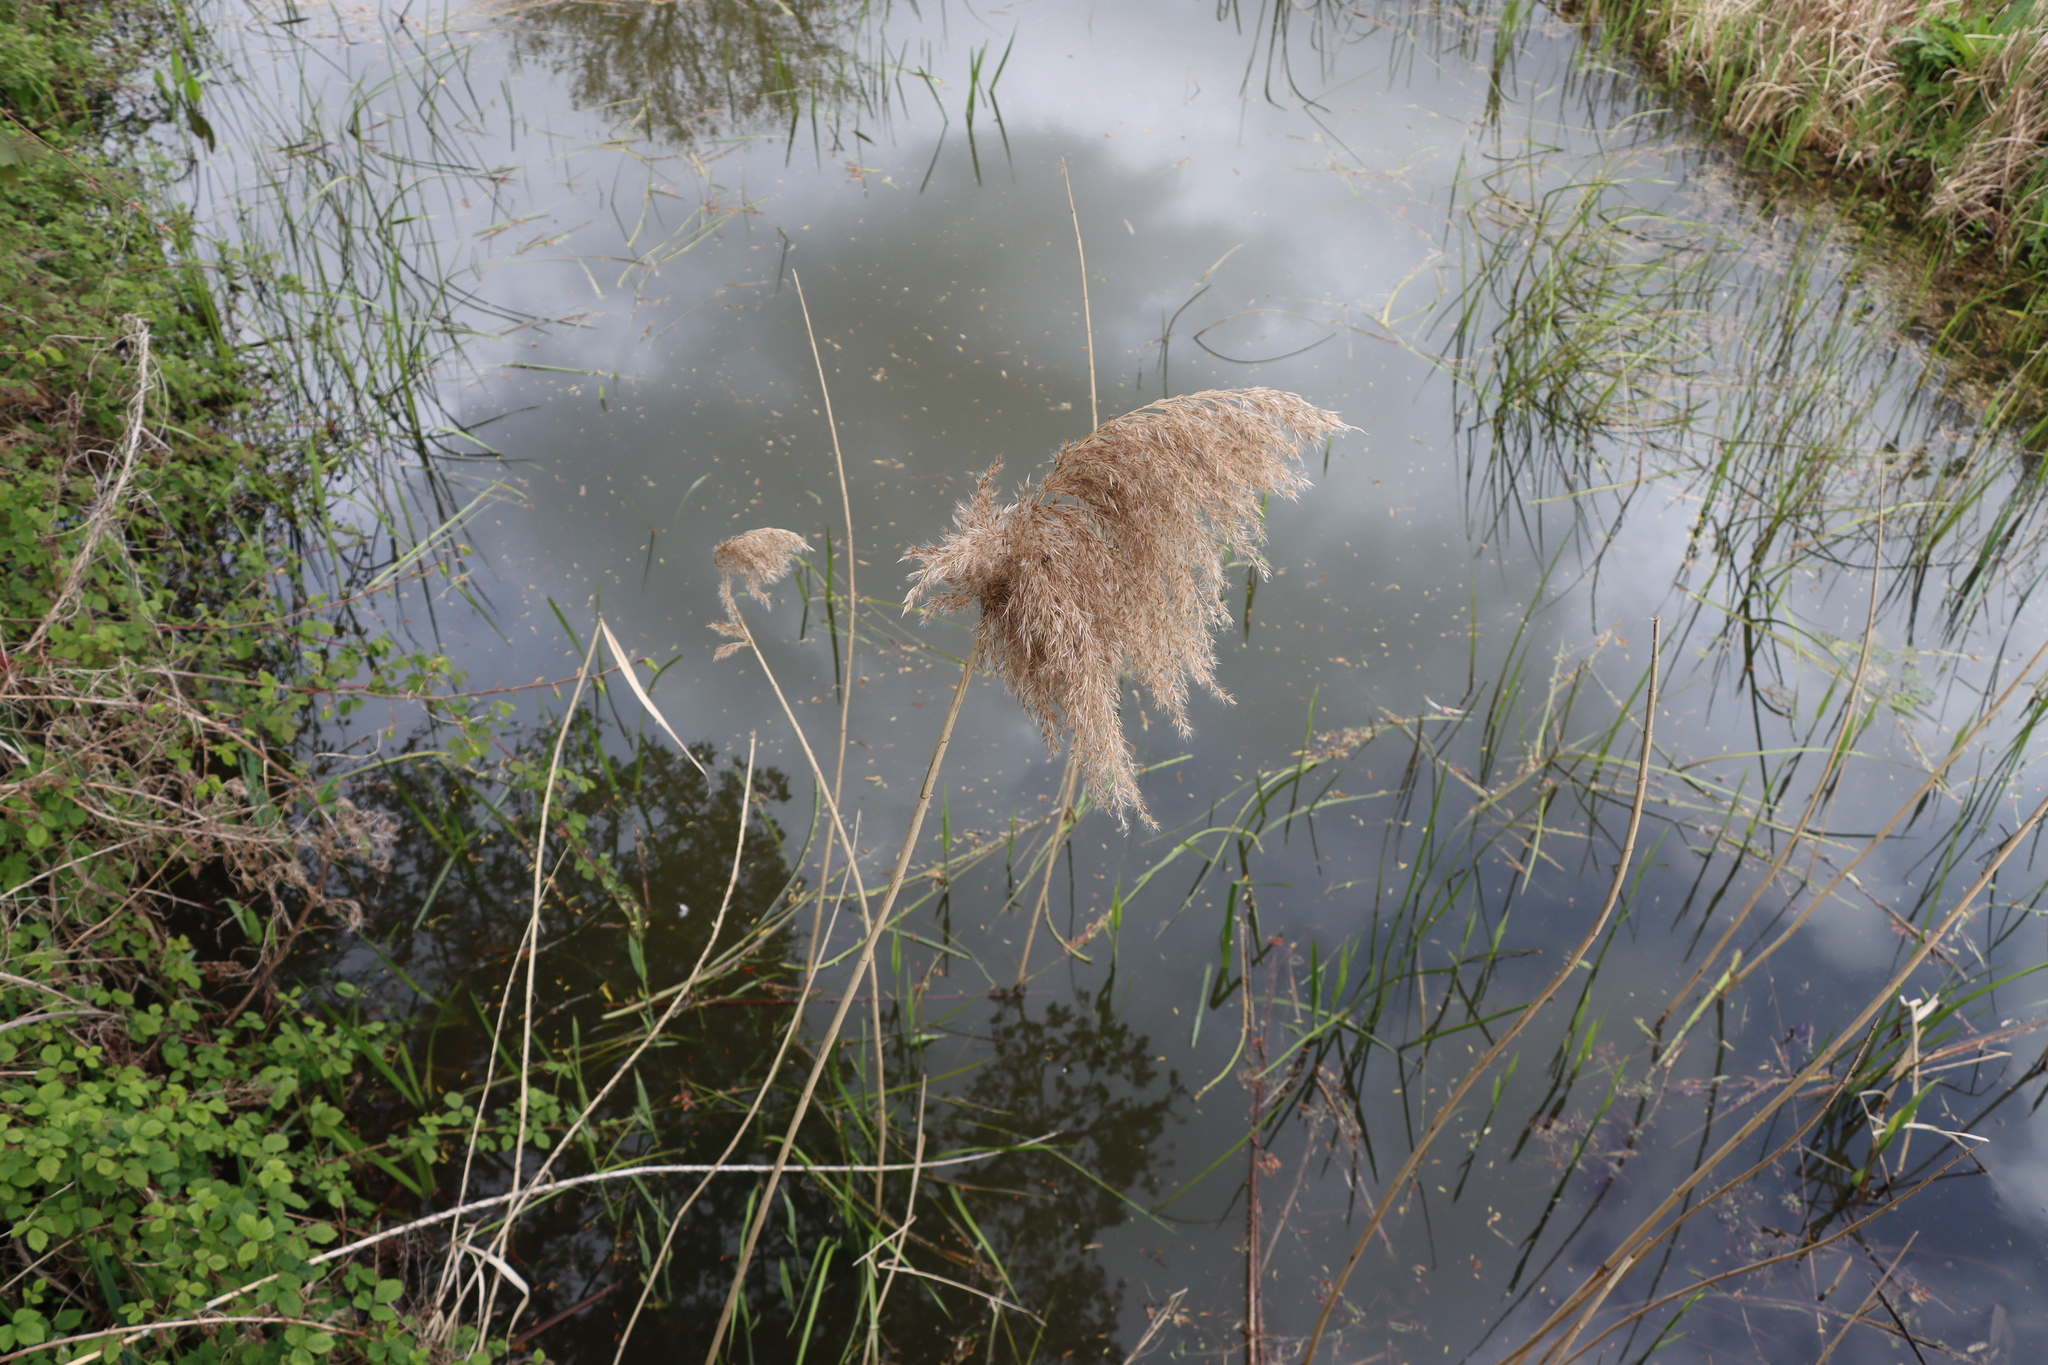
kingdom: Plantae
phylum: Tracheophyta
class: Liliopsida
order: Poales
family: Poaceae
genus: Phragmites
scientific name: Phragmites australis
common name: Common reed
